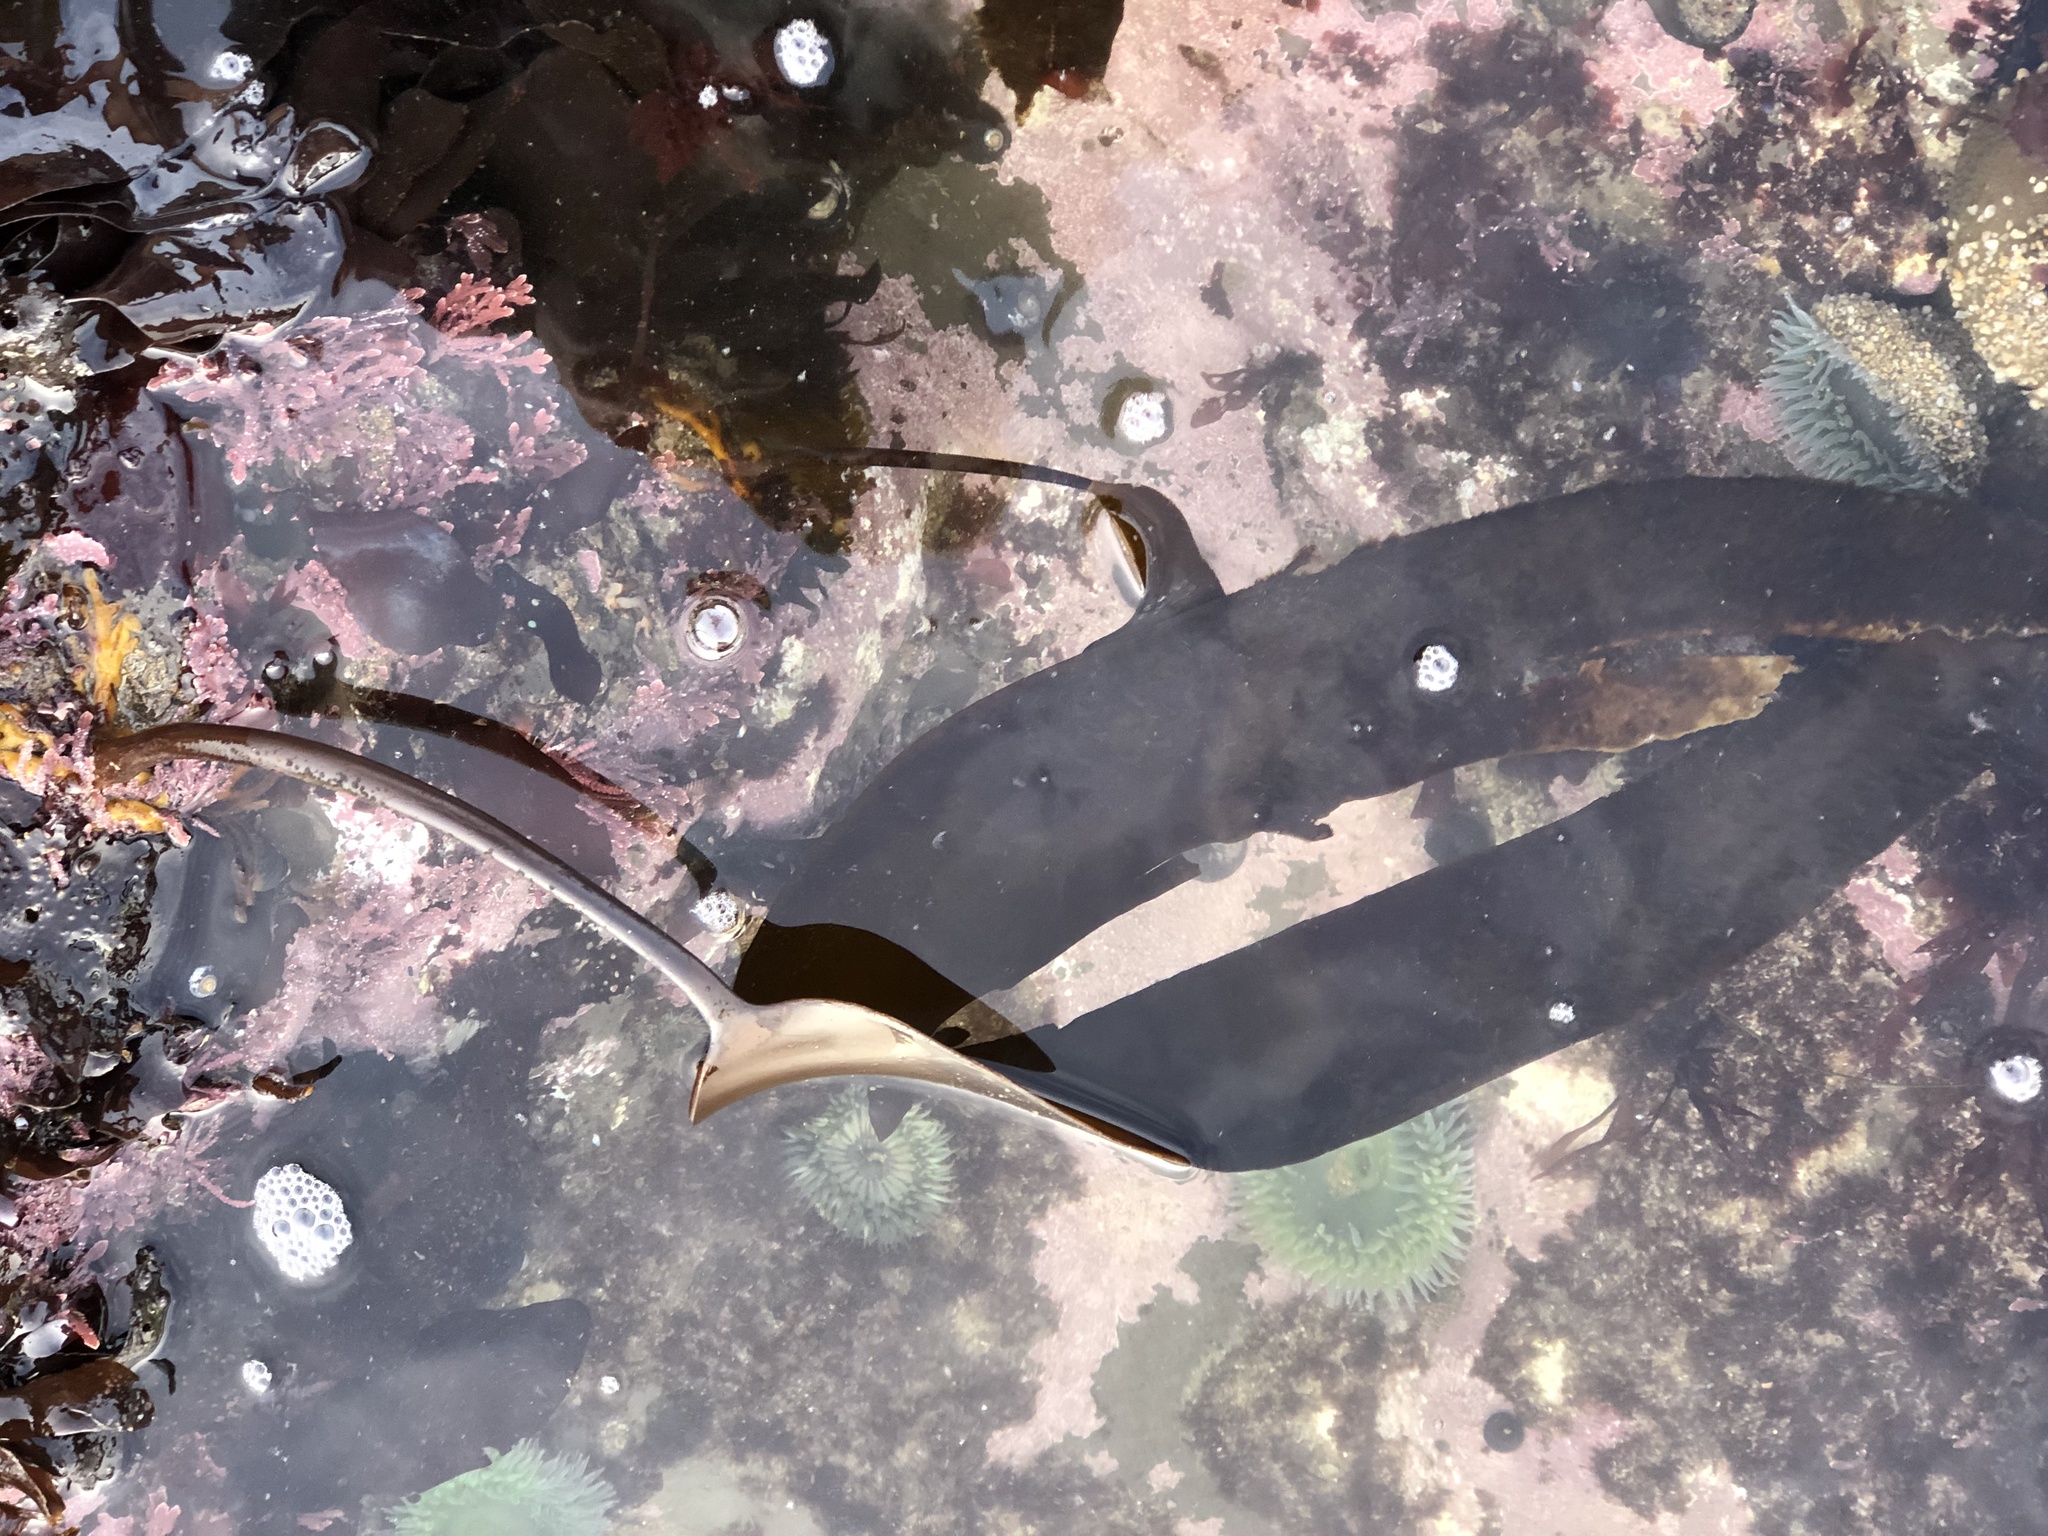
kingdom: Chromista
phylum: Ochrophyta
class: Phaeophyceae
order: Laminariales
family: Laminariaceae
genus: Laminaria
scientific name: Laminaria setchellii
